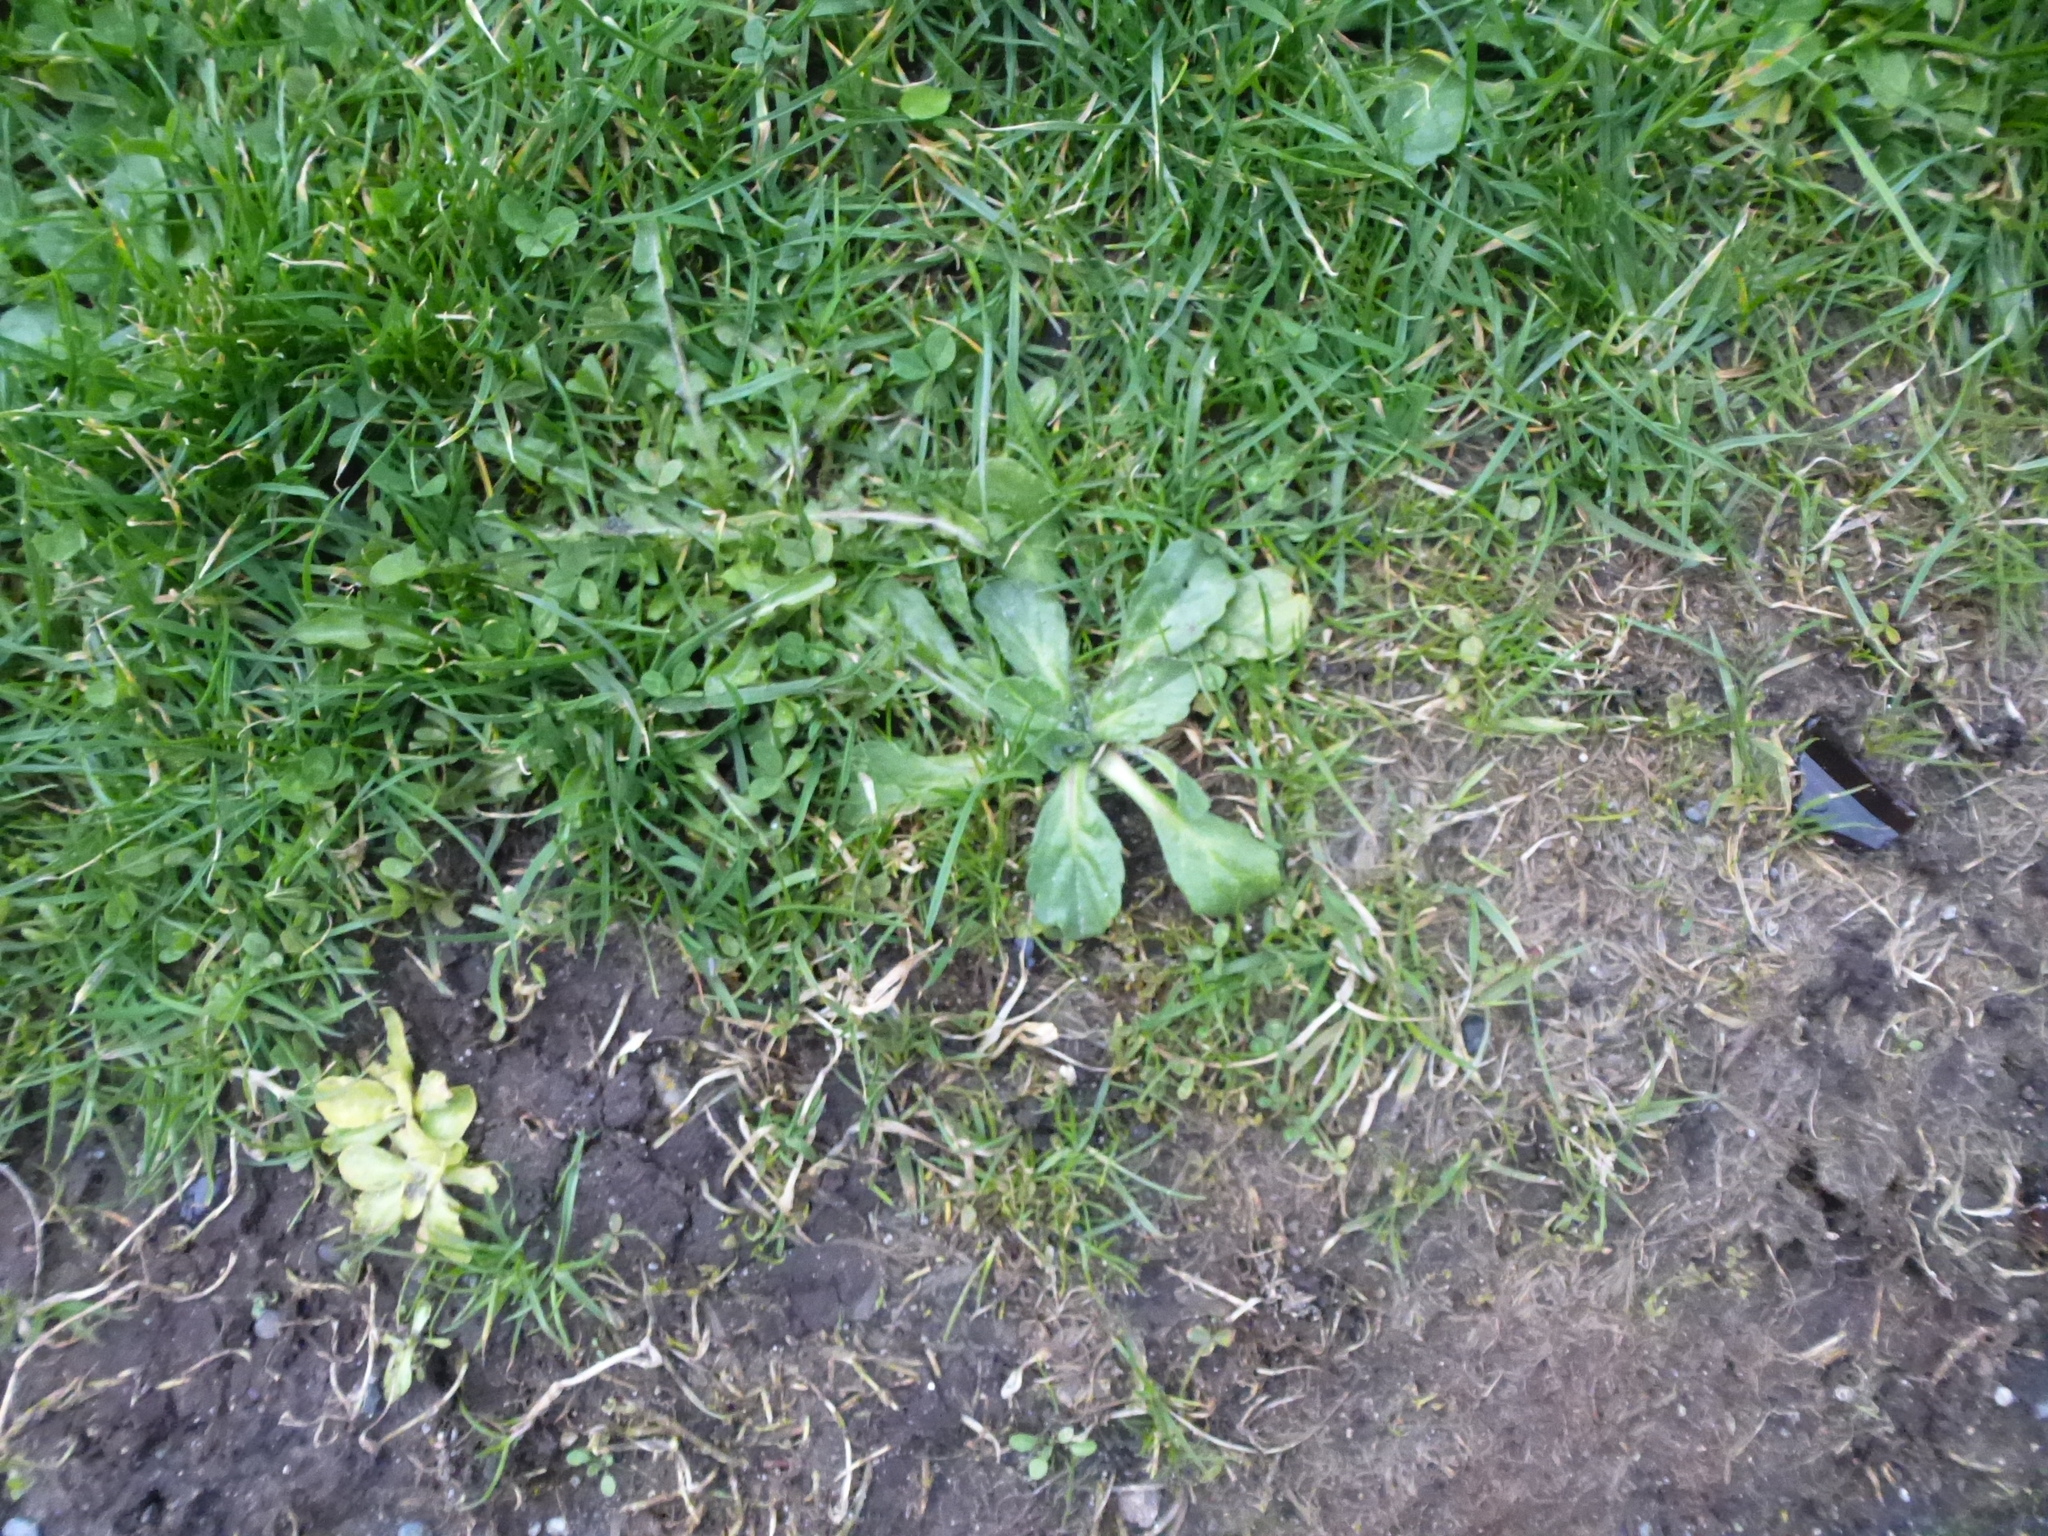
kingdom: Plantae
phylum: Tracheophyta
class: Magnoliopsida
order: Asterales
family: Asteraceae
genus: Bellis
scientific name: Bellis perennis
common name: Lawndaisy
